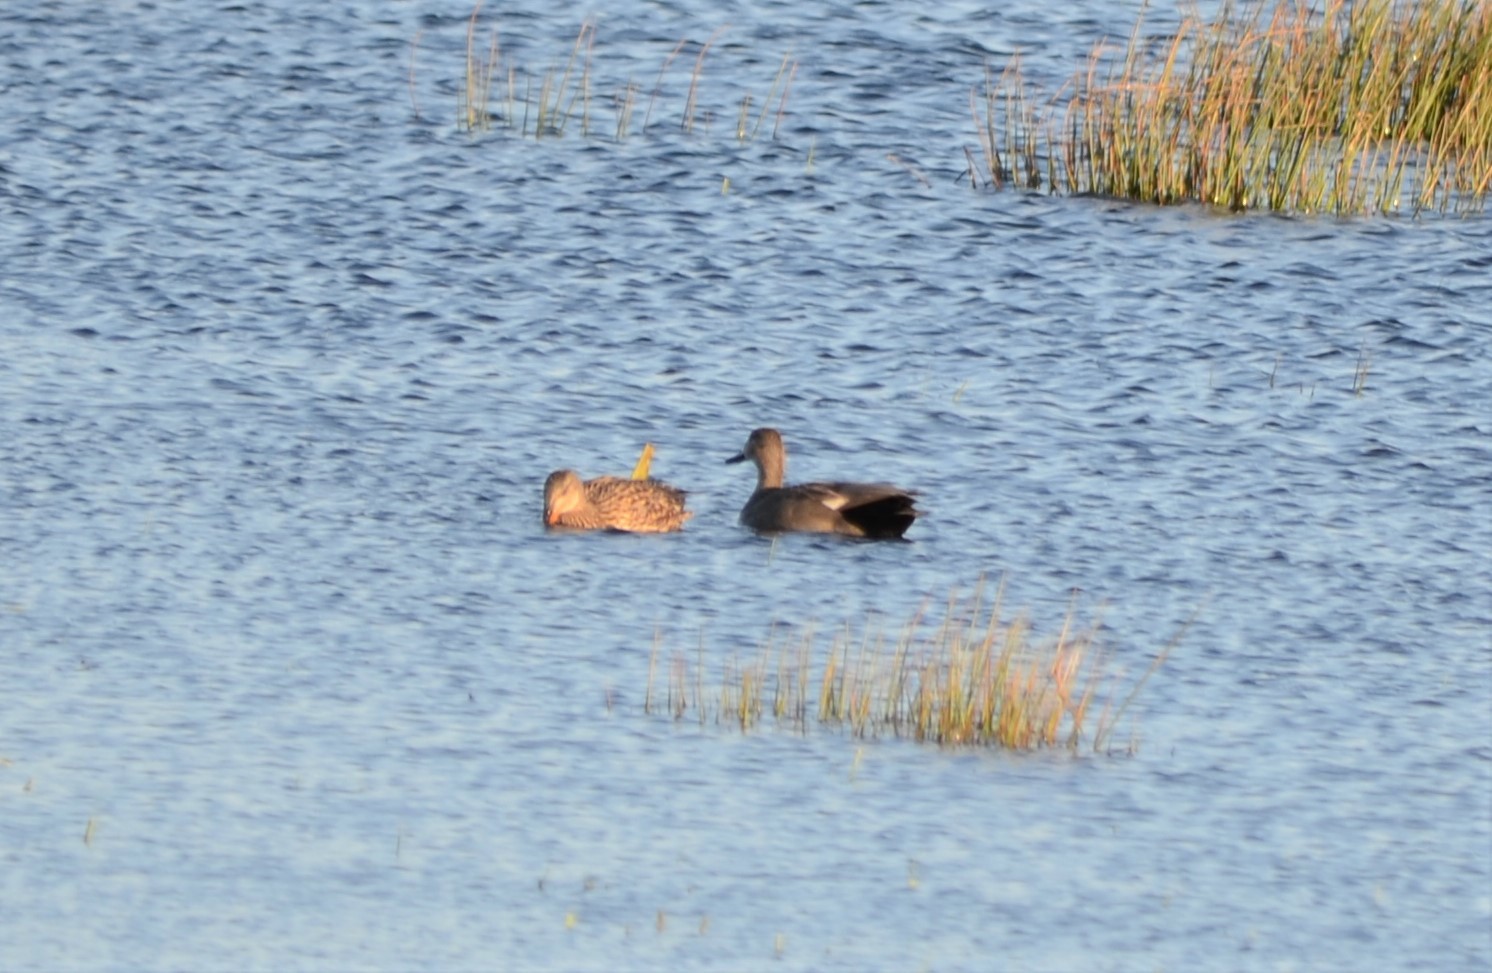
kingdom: Animalia
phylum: Chordata
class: Aves
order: Anseriformes
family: Anatidae
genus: Mareca
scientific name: Mareca strepera
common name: Gadwall
